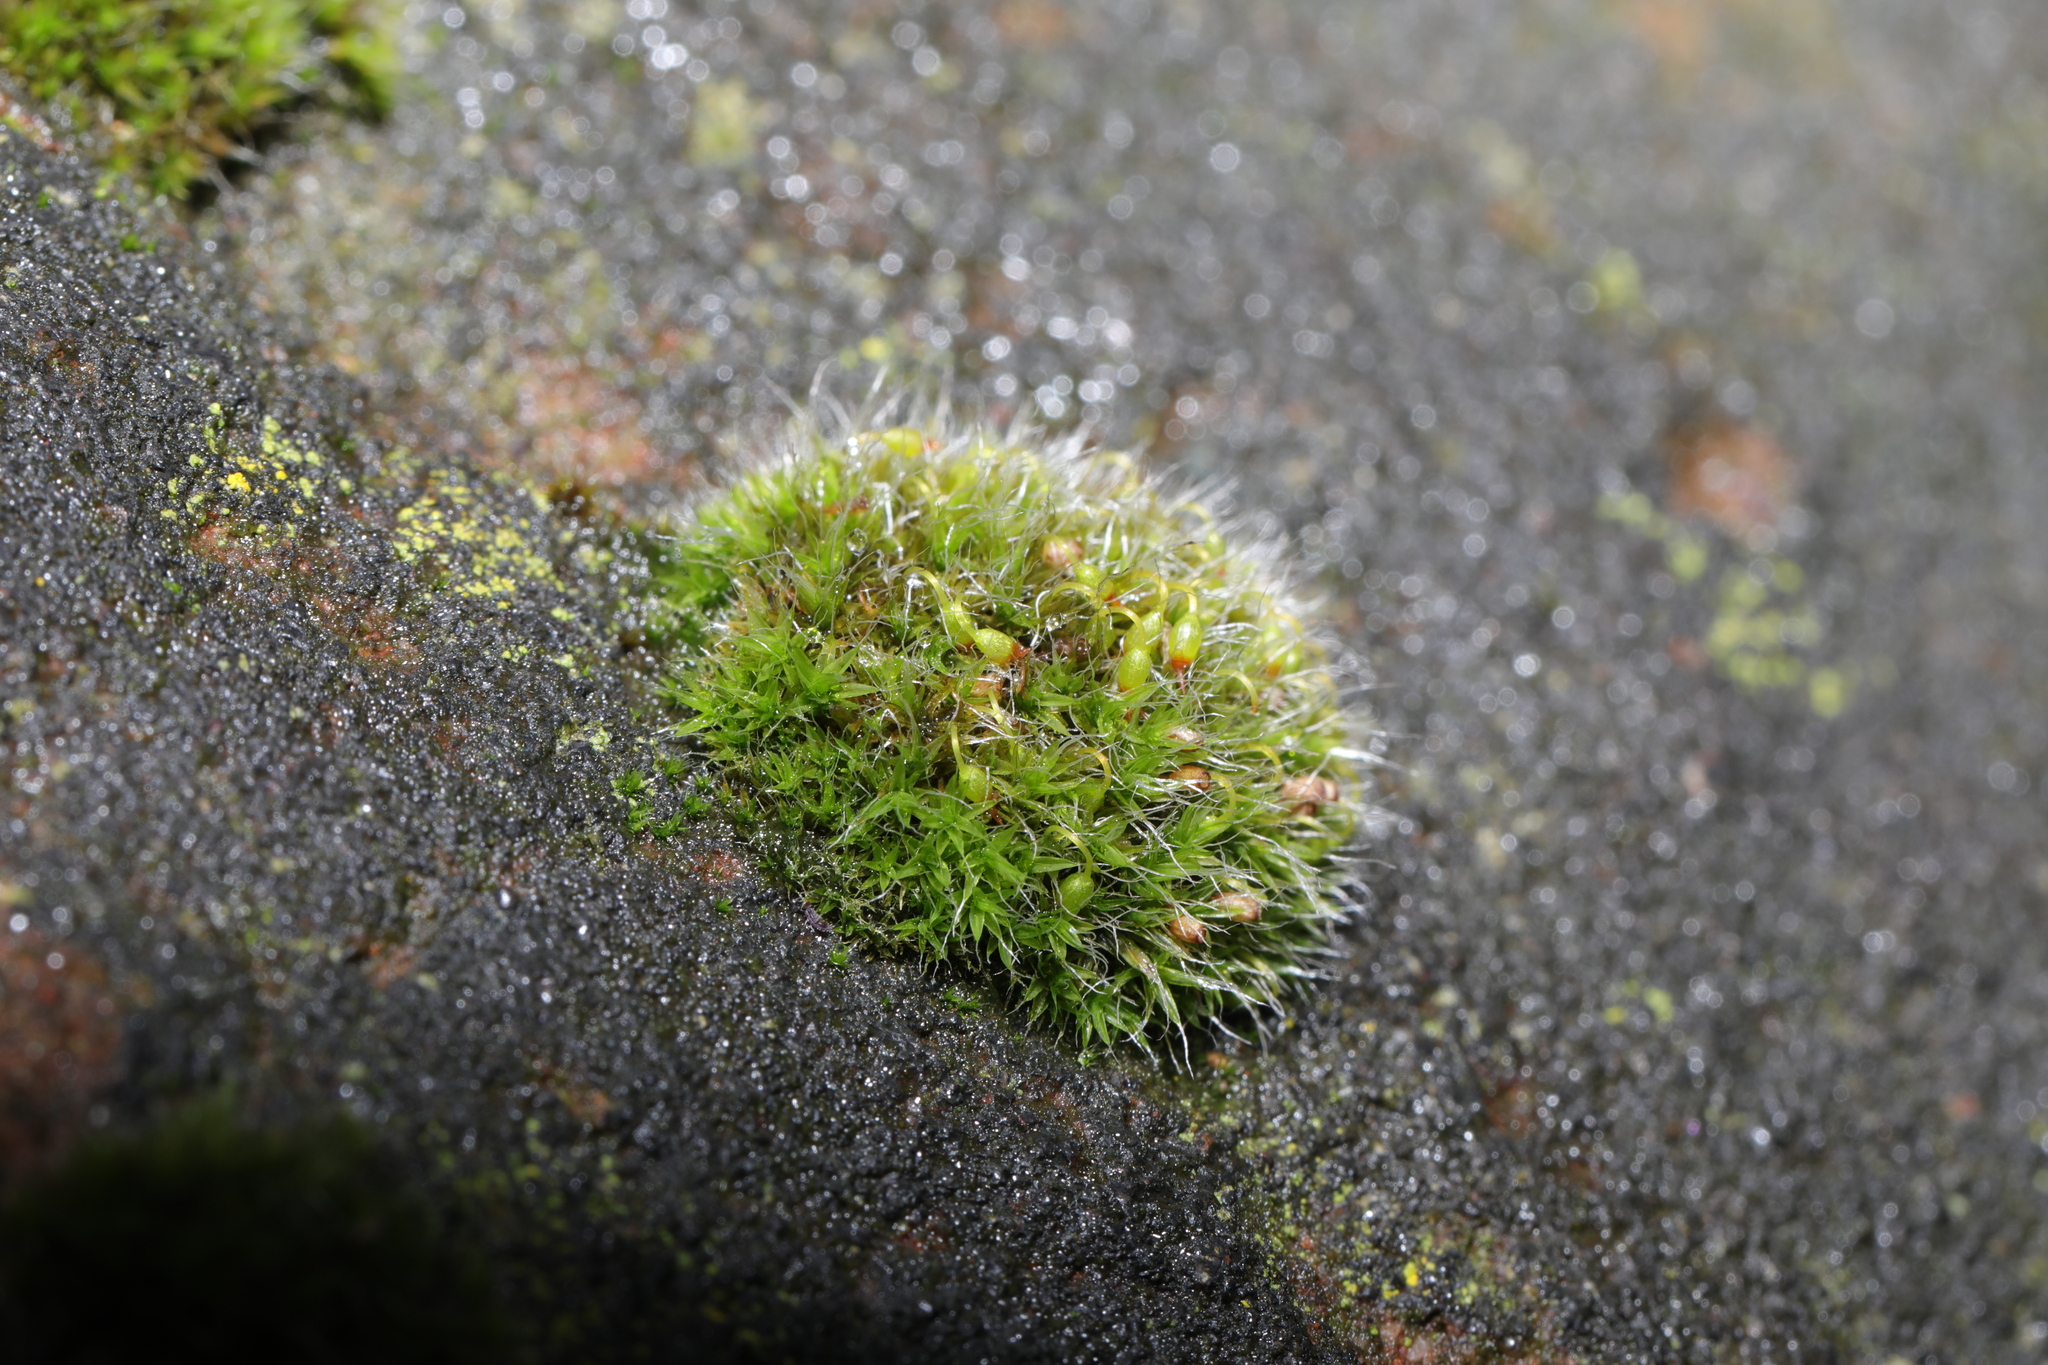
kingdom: Plantae
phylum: Bryophyta
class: Bryopsida
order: Grimmiales
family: Grimmiaceae
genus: Grimmia
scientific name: Grimmia pulvinata
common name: Grey-cushioned grimmia
